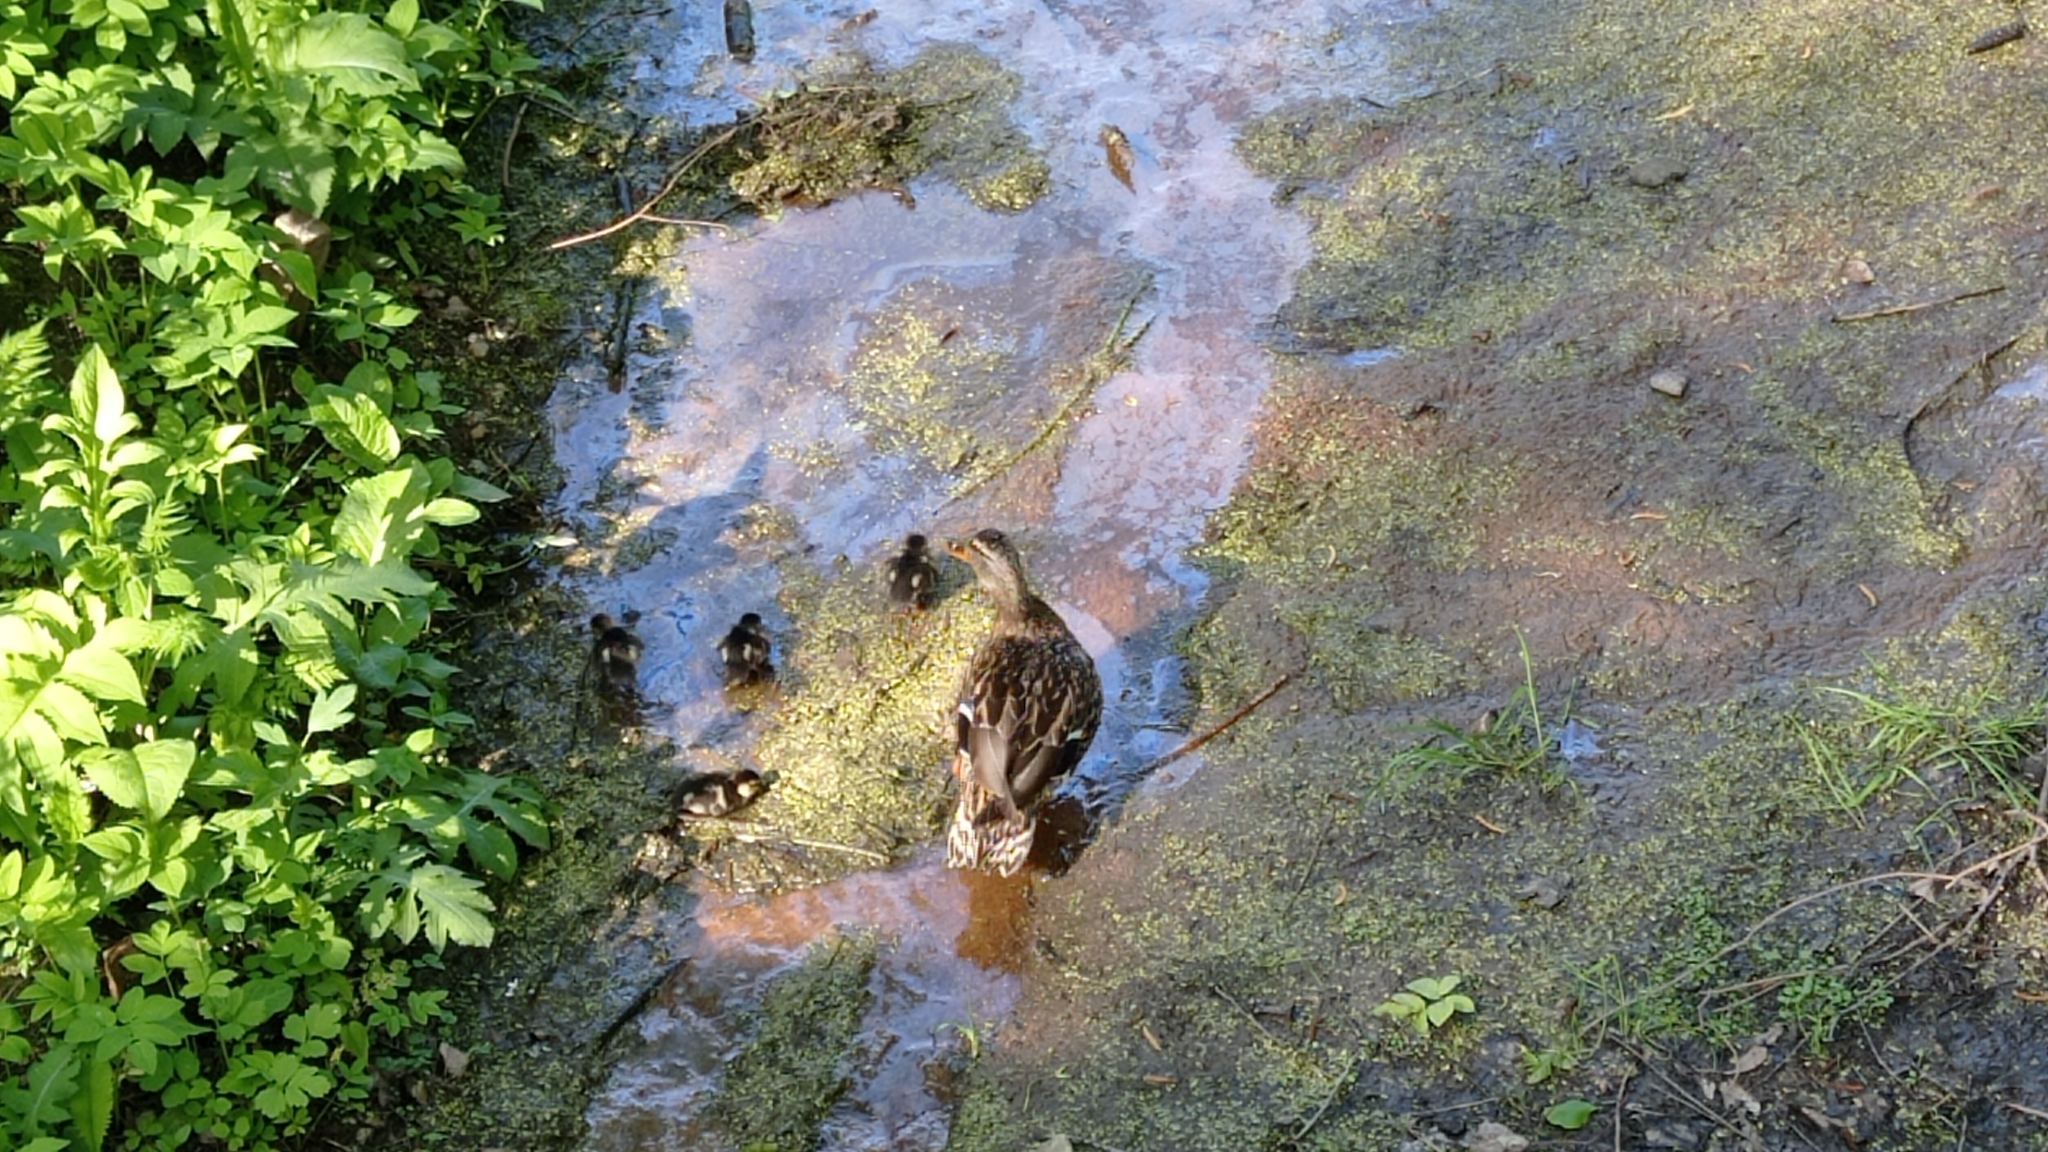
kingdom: Animalia
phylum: Chordata
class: Aves
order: Anseriformes
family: Anatidae
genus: Anas
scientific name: Anas platyrhynchos
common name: Mallard
